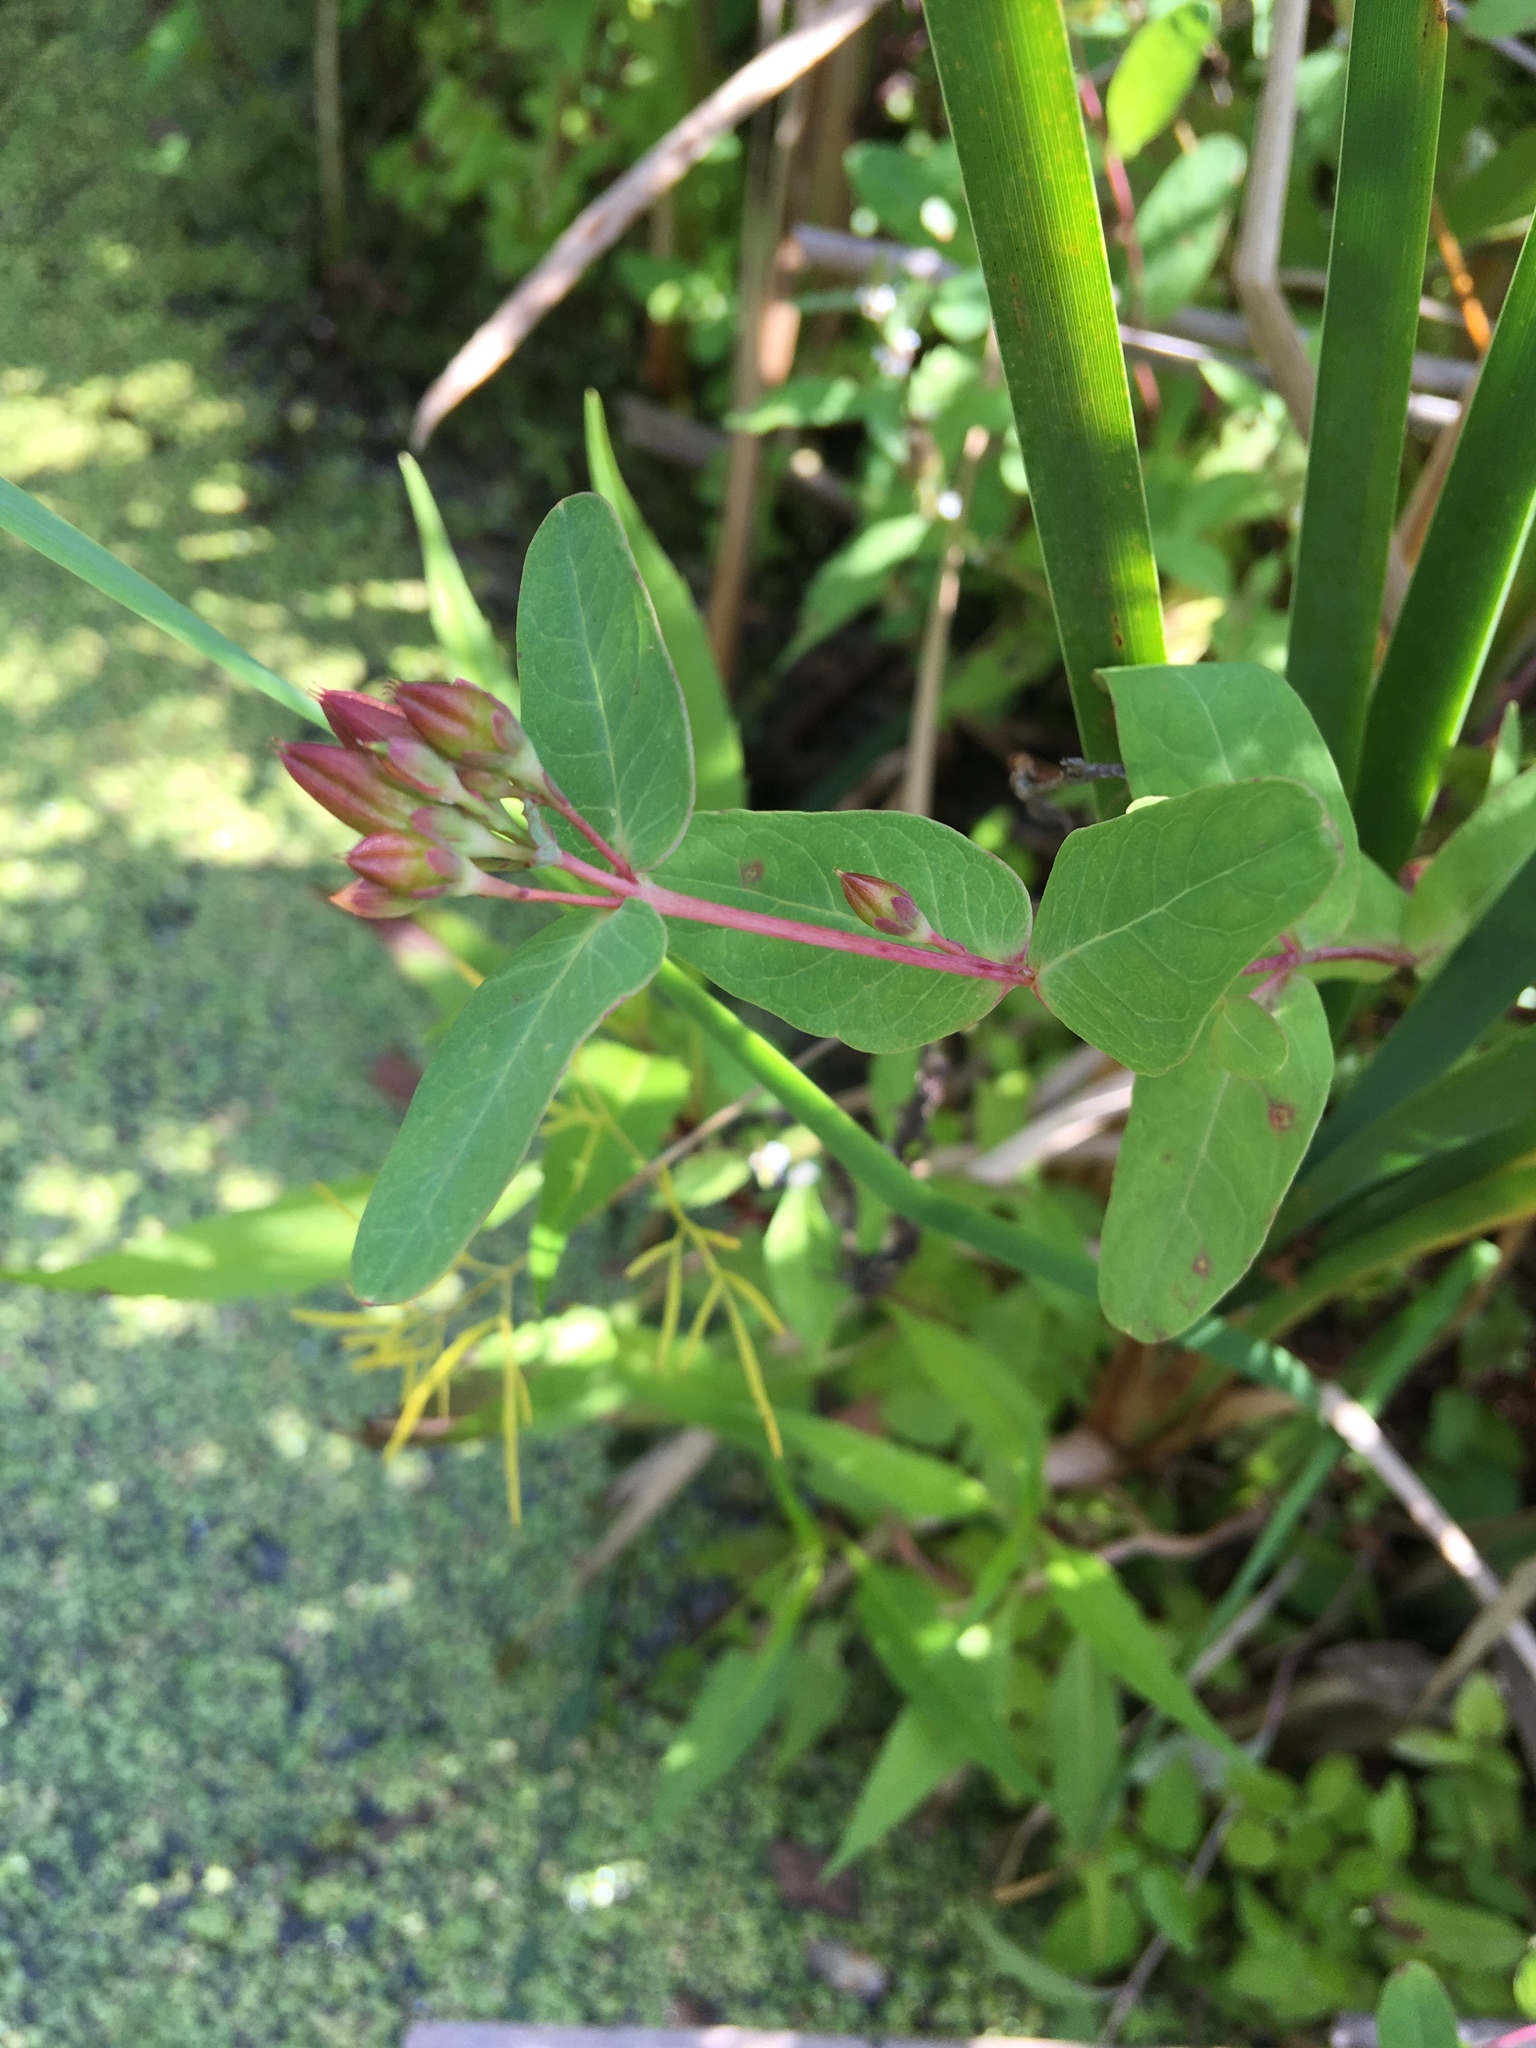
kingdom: Plantae
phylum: Tracheophyta
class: Magnoliopsida
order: Malpighiales
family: Hypericaceae
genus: Triadenum
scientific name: Triadenum fraseri
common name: Fraser's marsh st. johnswort
